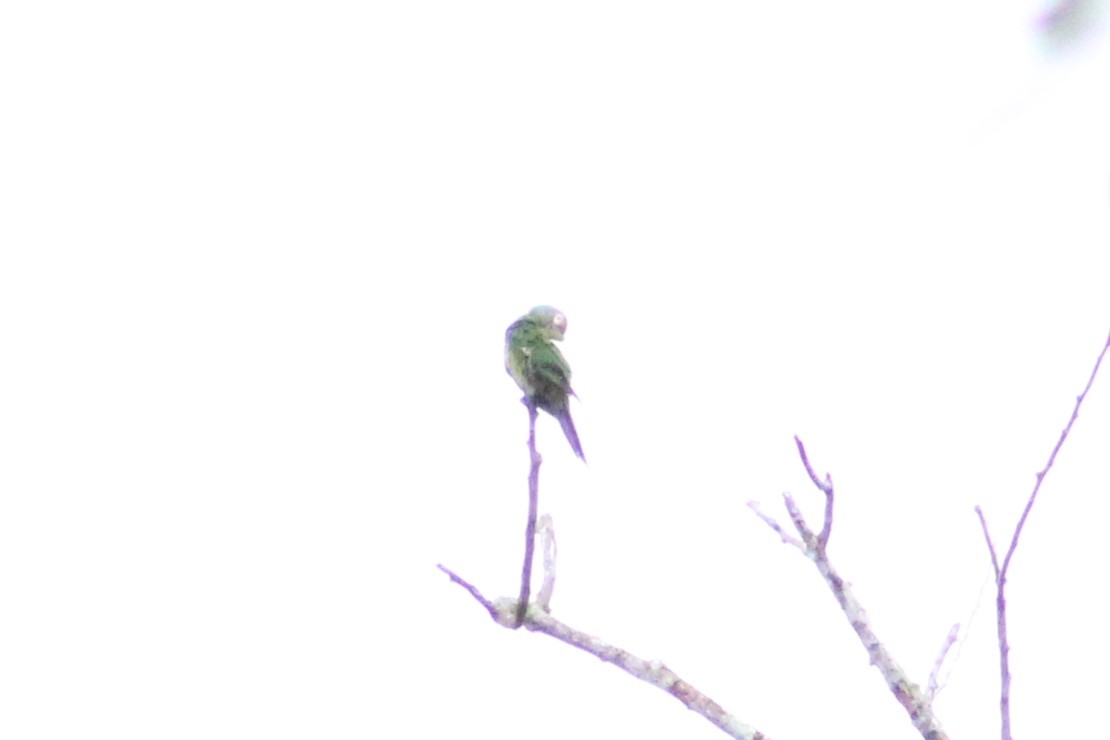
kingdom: Animalia
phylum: Chordata
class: Aves
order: Psittaciformes
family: Psittacidae
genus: Aratinga
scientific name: Aratinga weddellii
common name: Dusky-headed parakeet
